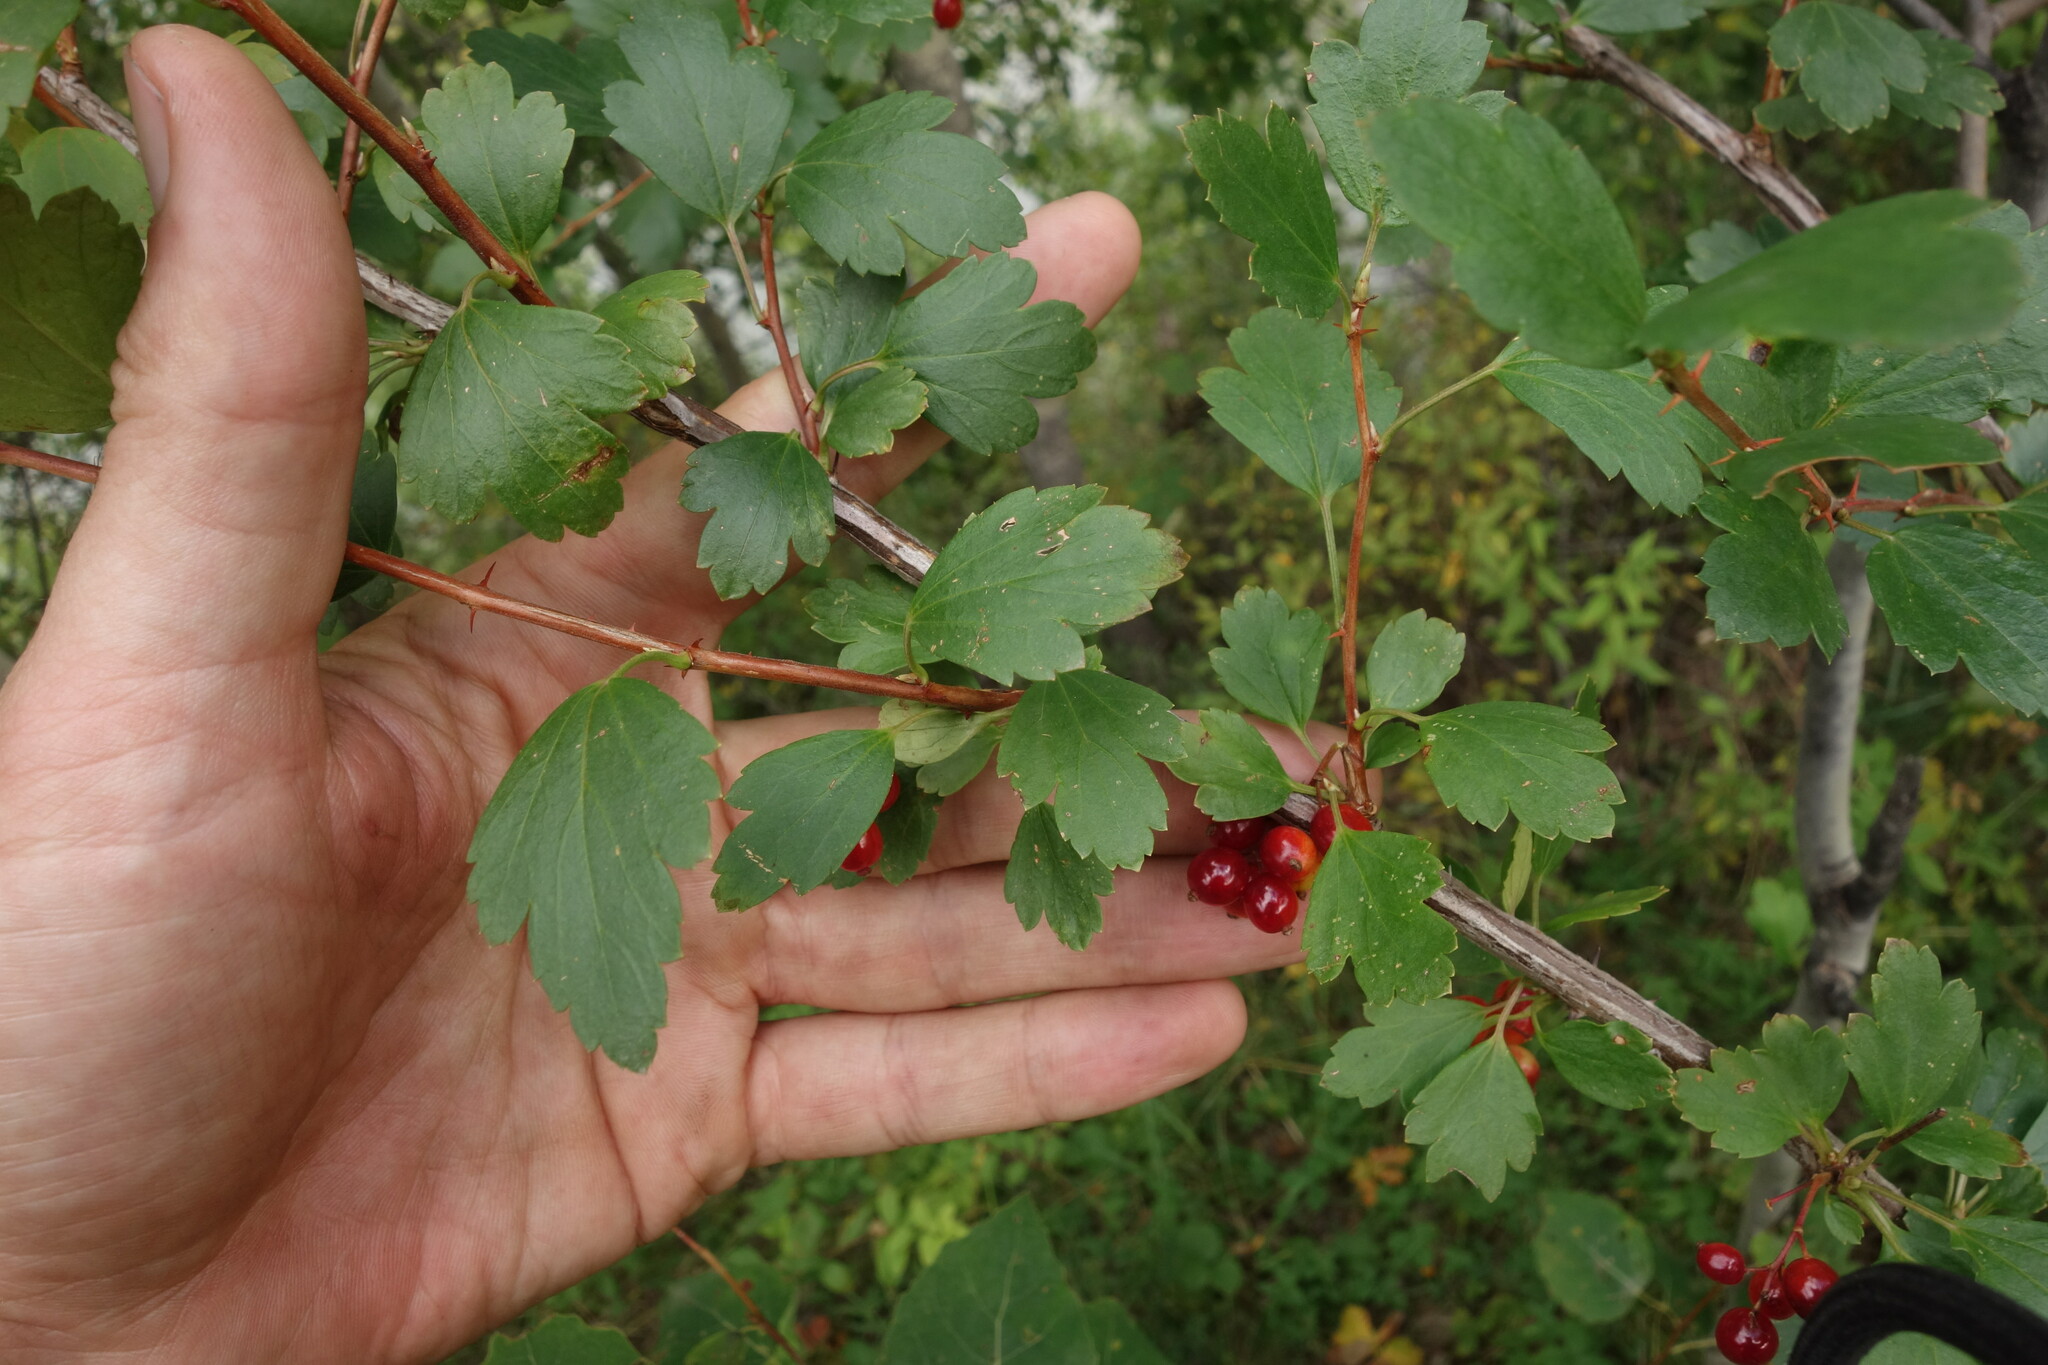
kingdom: Plantae
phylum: Tracheophyta
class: Magnoliopsida
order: Saxifragales
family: Grossulariaceae
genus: Ribes
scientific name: Ribes diacanthum
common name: Siberian currant
